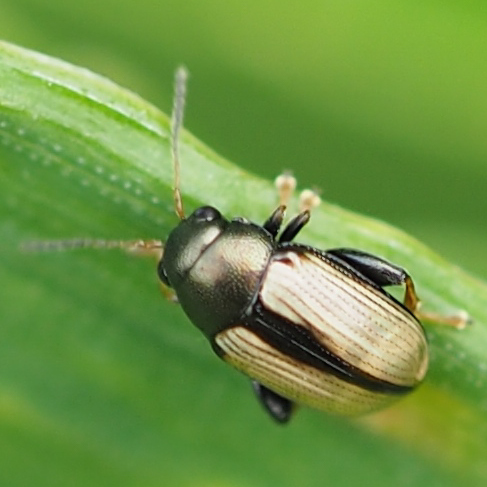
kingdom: Animalia
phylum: Arthropoda
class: Insecta
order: Coleoptera
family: Chrysomelidae
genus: Chaetocnema
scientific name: Chaetocnema conducta
